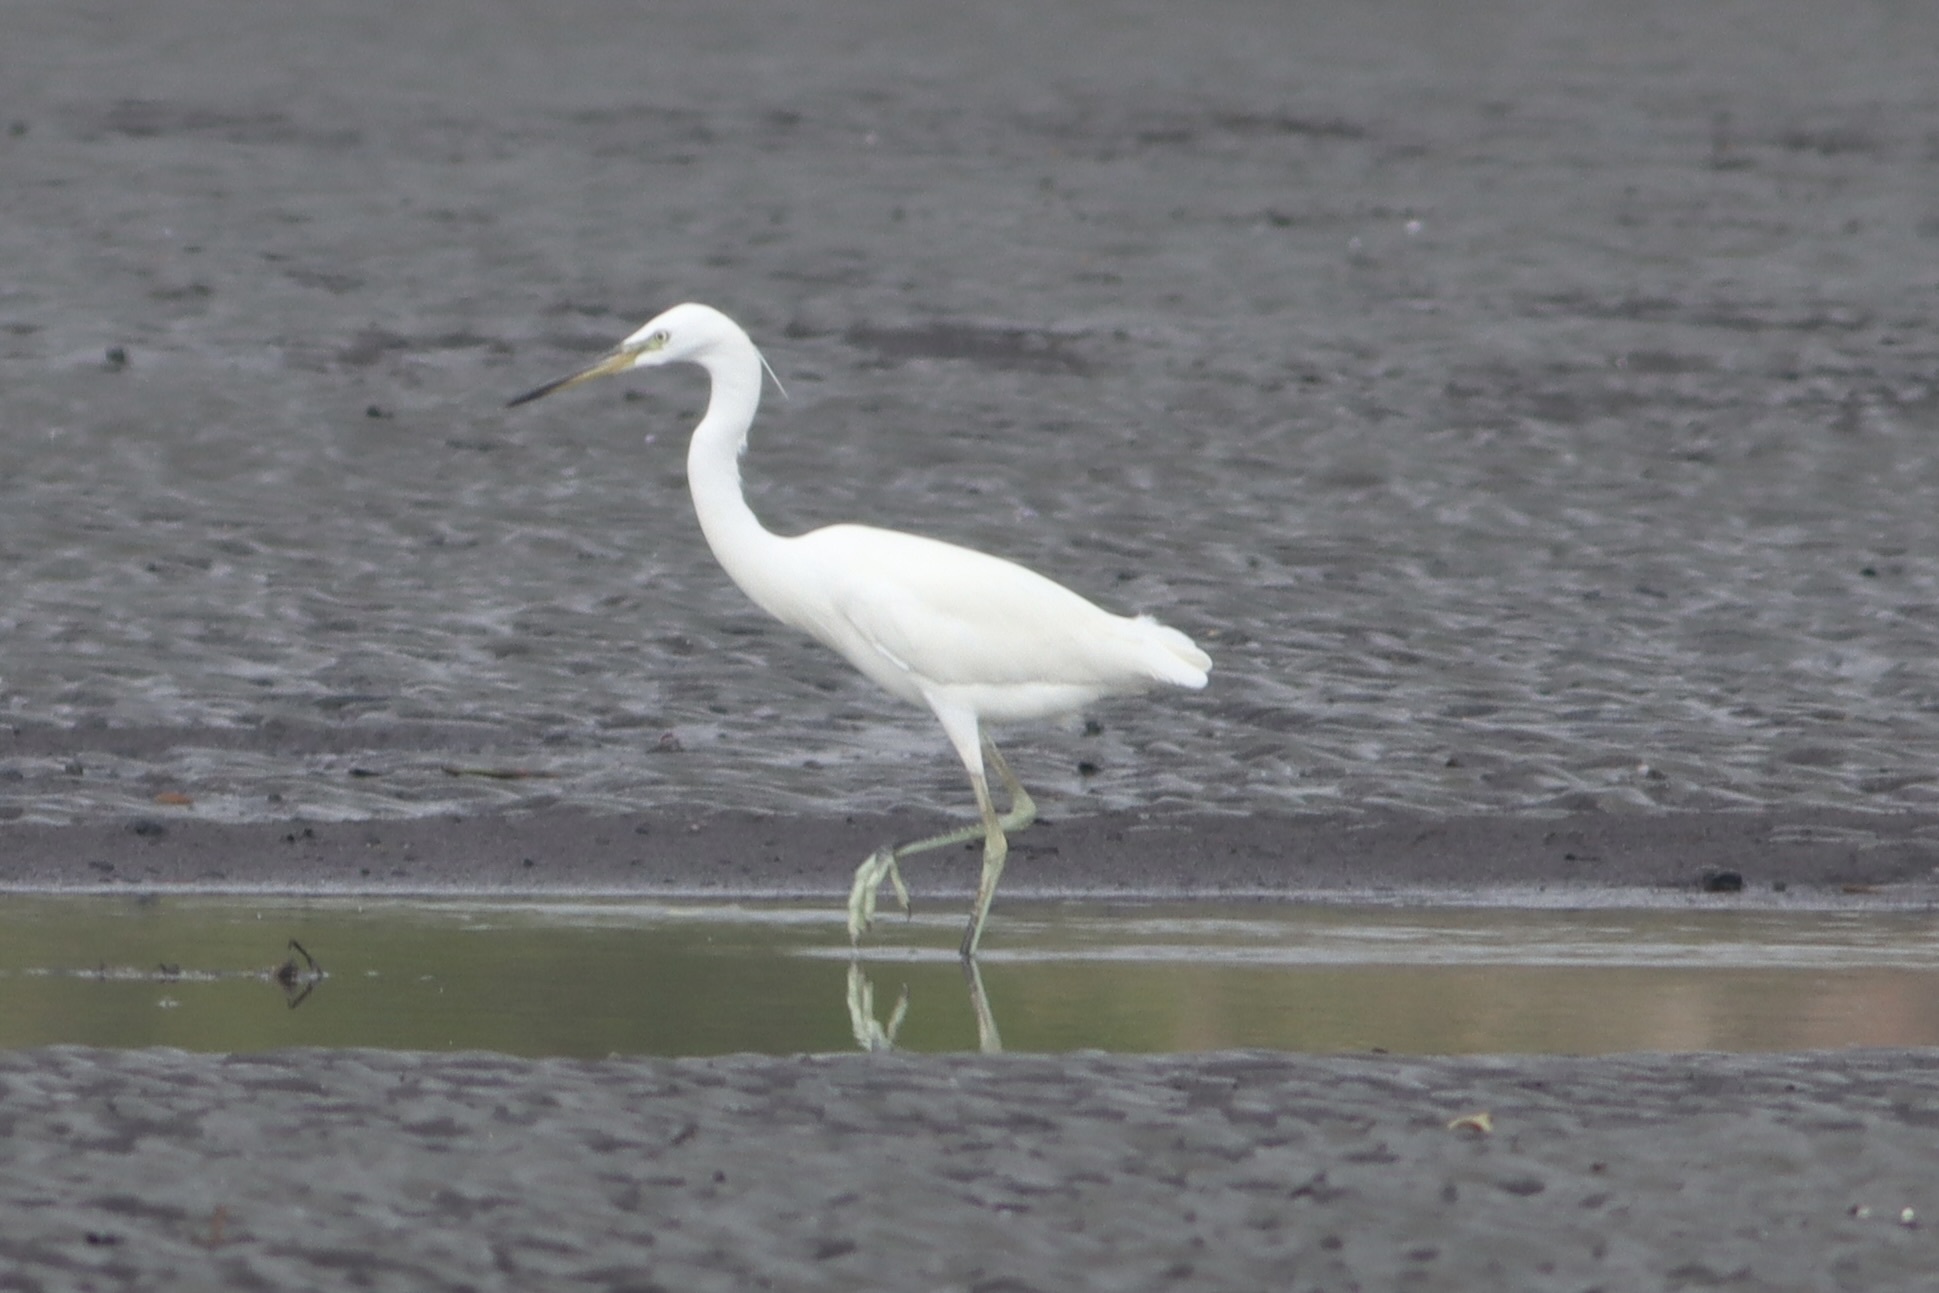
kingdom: Animalia
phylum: Chordata
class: Aves
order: Pelecaniformes
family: Ardeidae
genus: Egretta
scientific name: Egretta eulophotes
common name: Chinese egret
